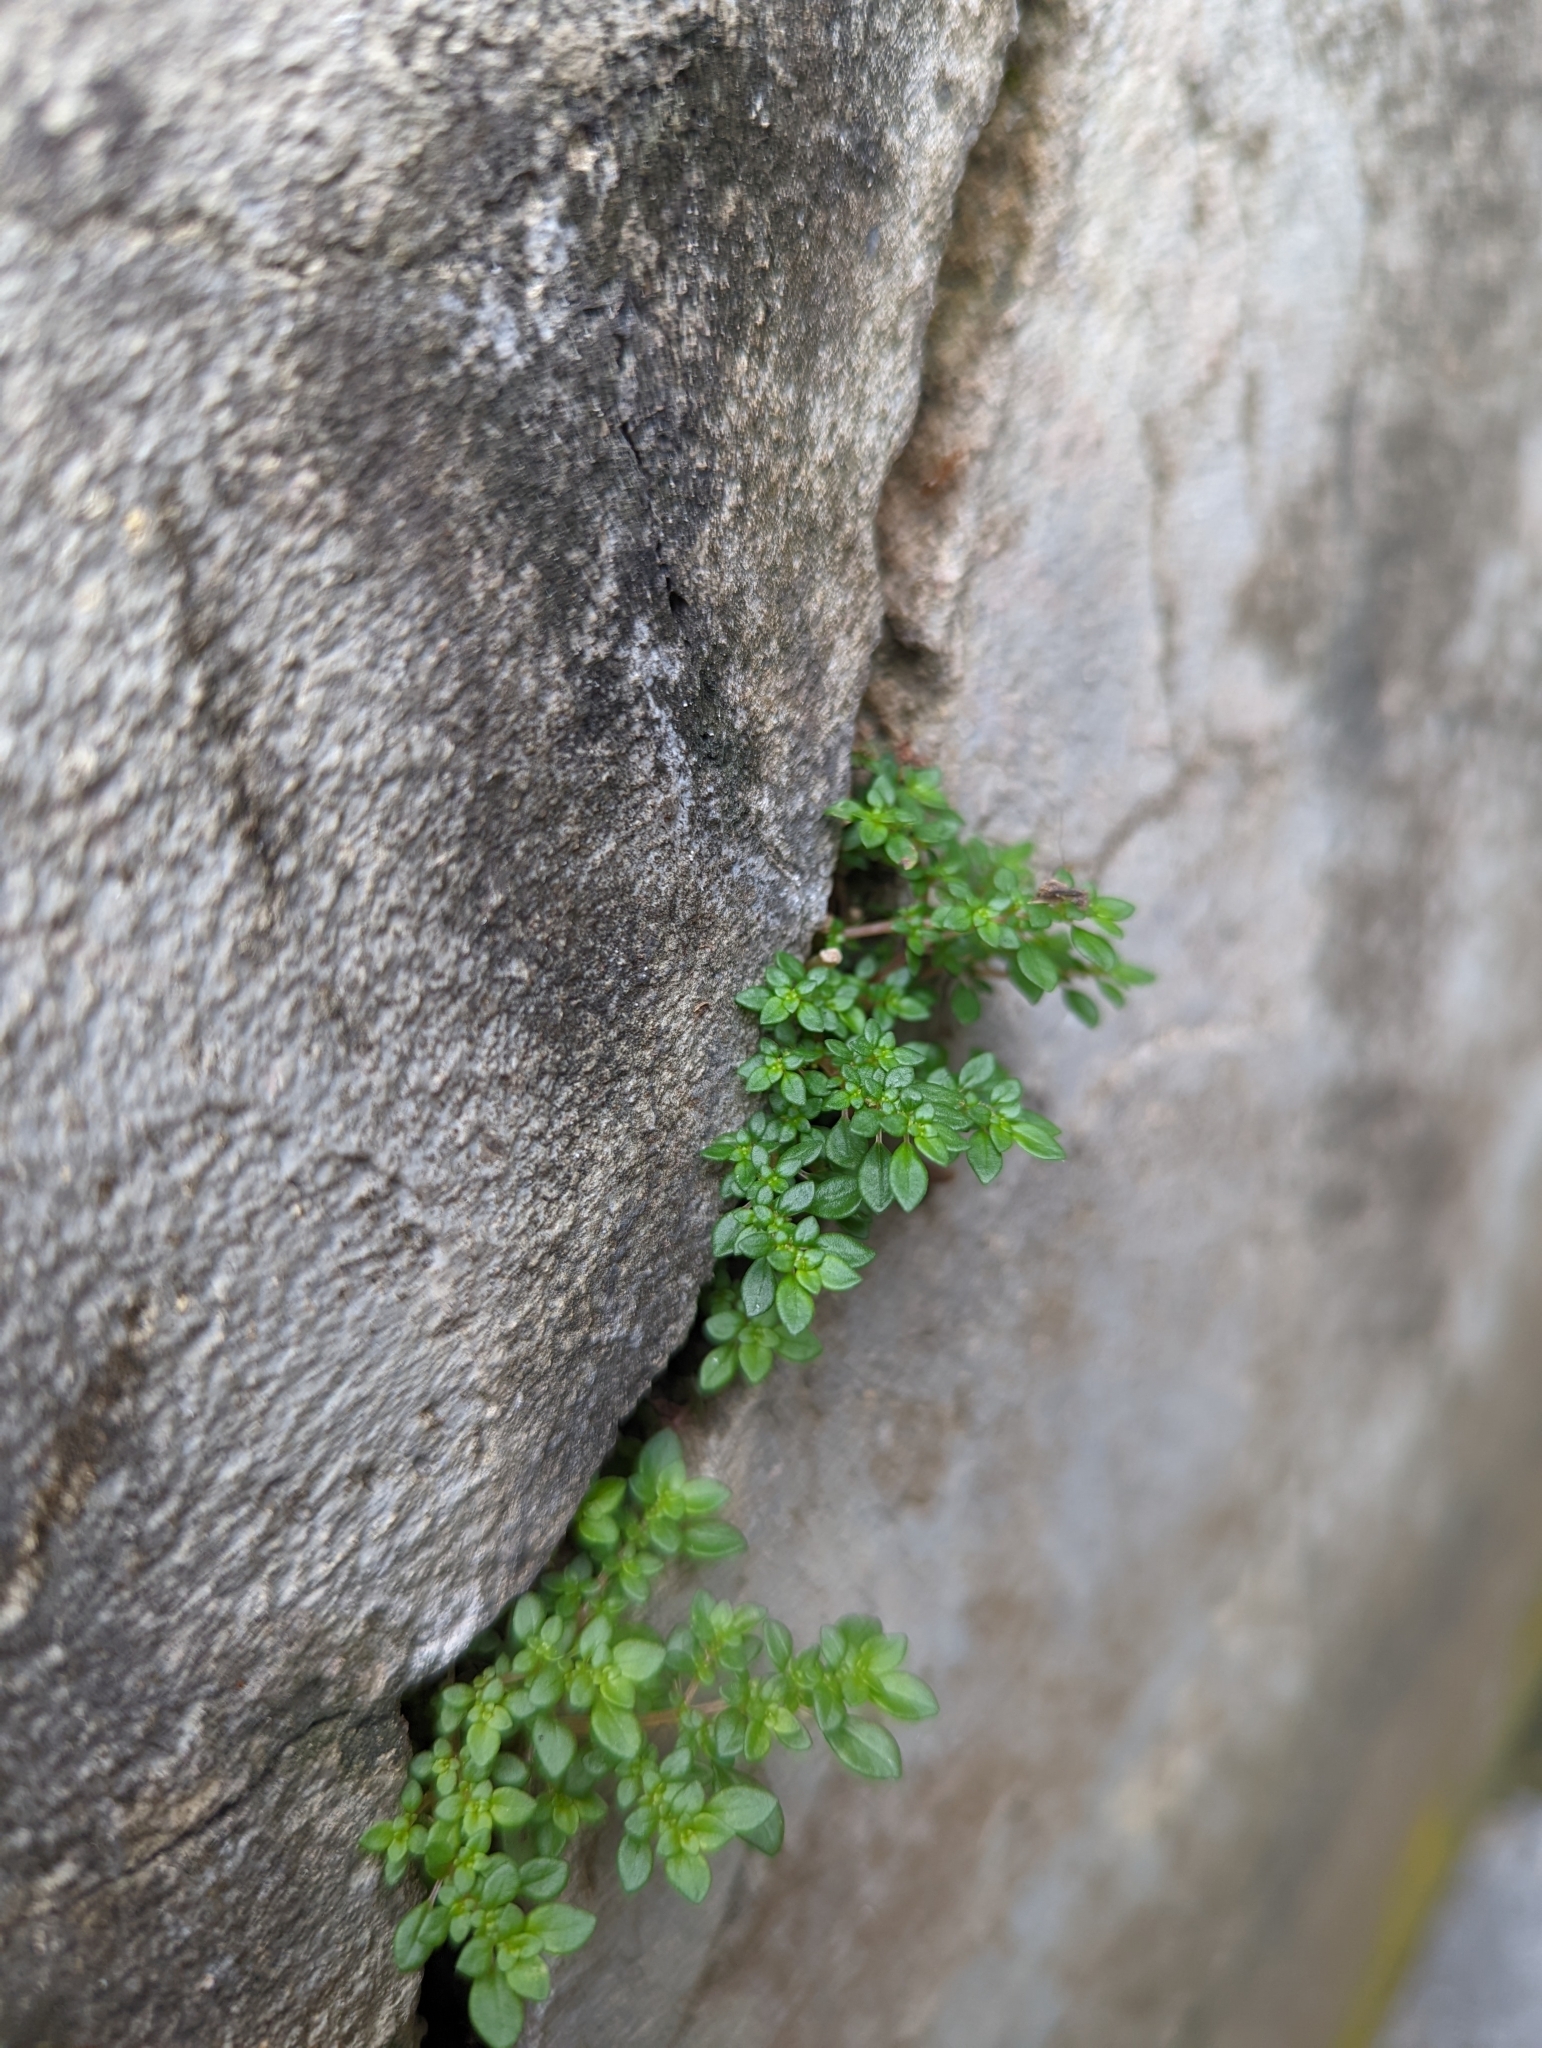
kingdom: Plantae
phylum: Tracheophyta
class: Magnoliopsida
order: Rosales
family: Urticaceae
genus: Pilea
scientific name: Pilea microphylla
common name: Artillery-plant
